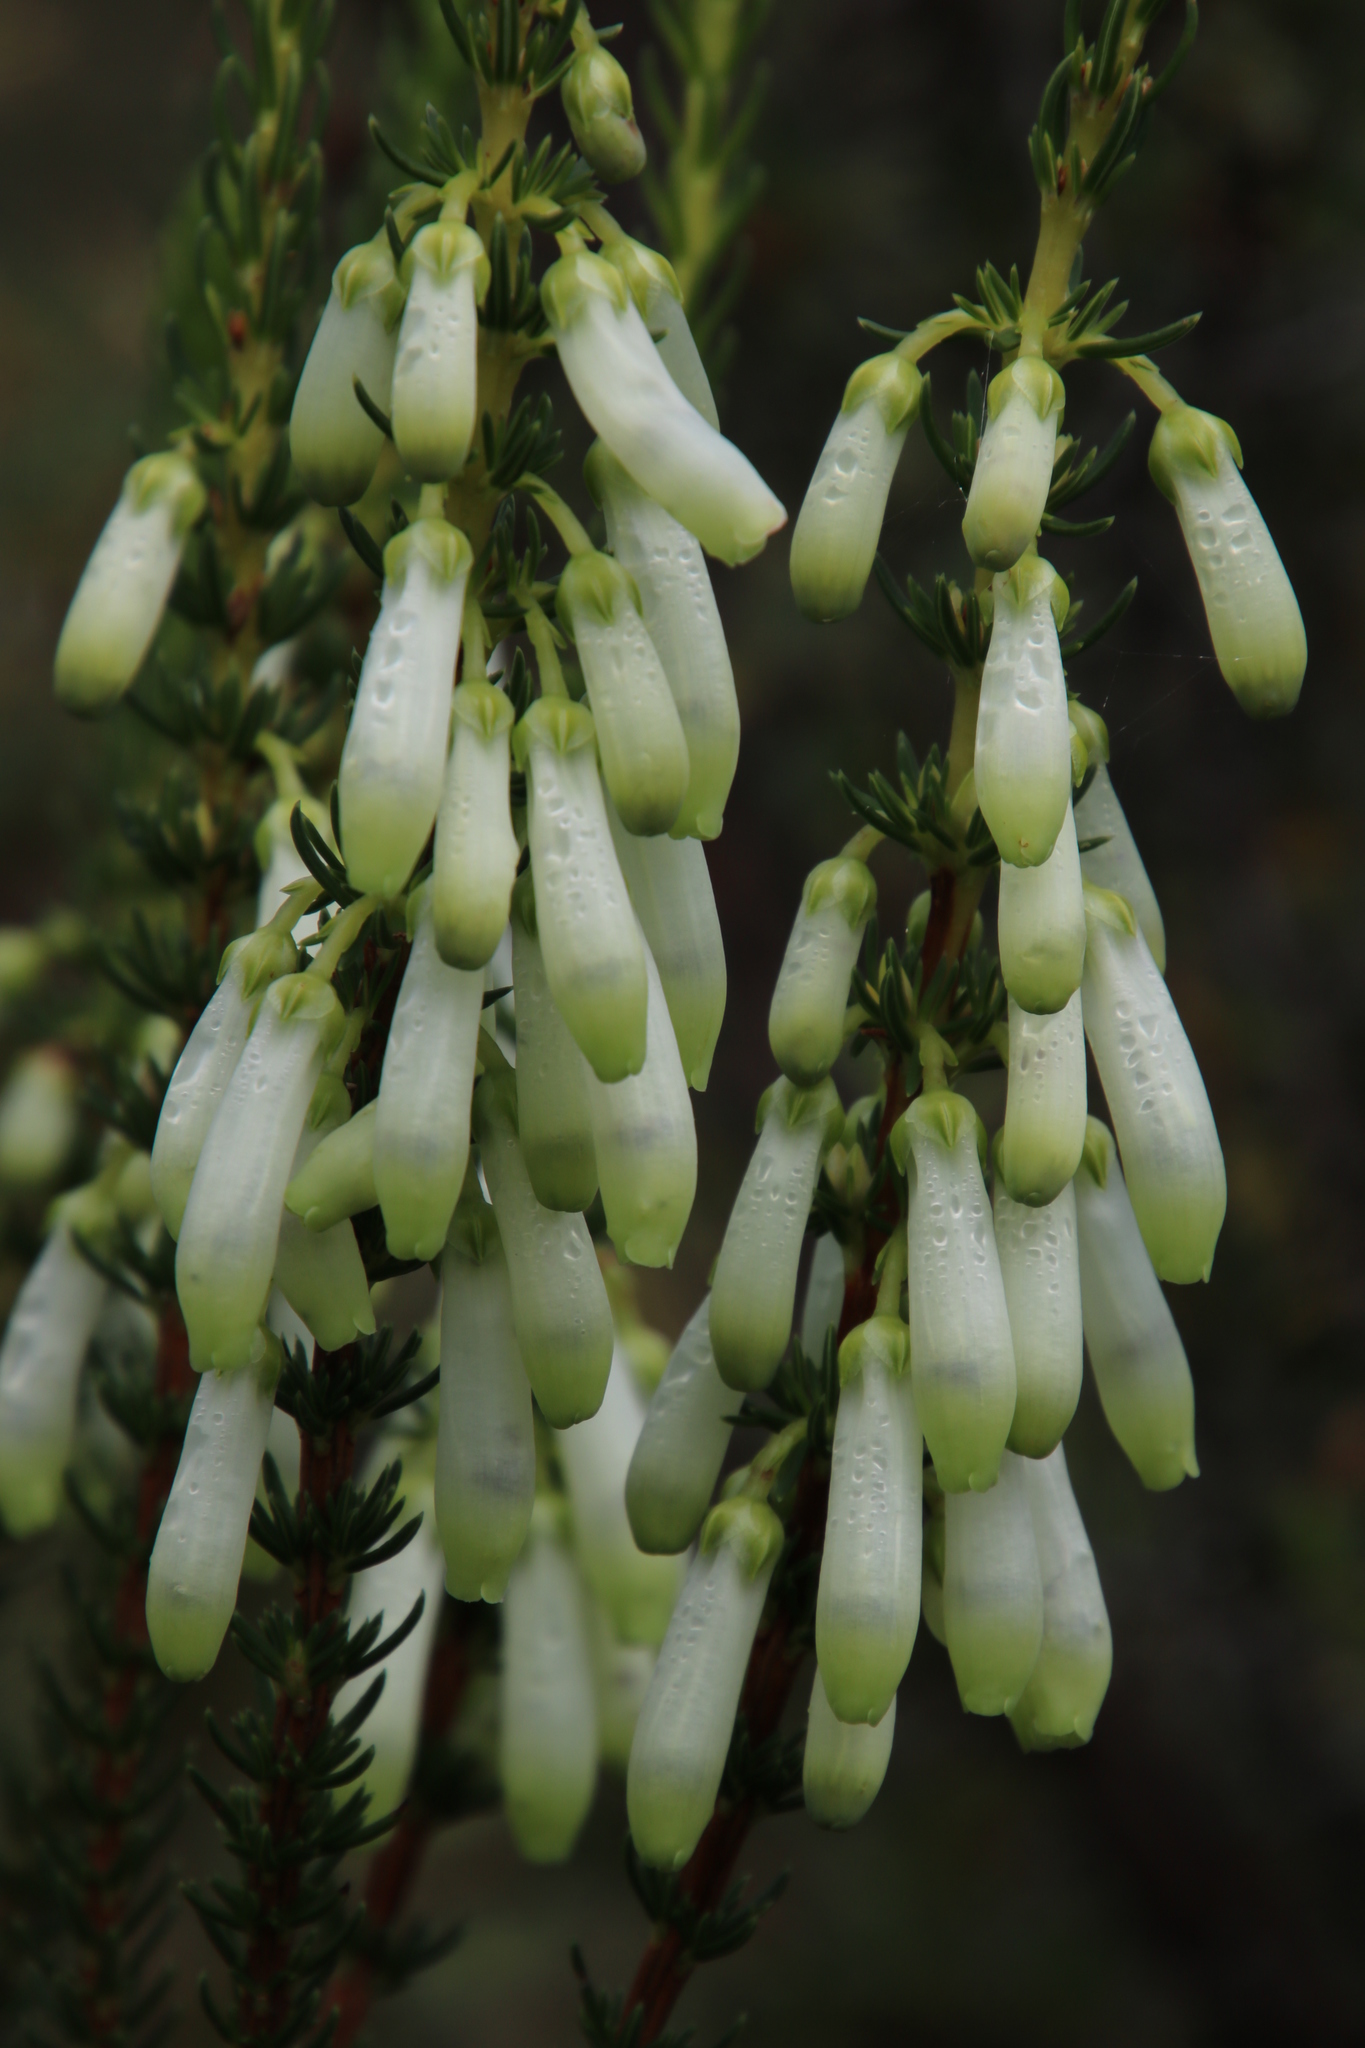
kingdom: Plantae
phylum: Tracheophyta
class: Magnoliopsida
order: Ericales
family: Ericaceae
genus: Erica
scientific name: Erica mammosa
